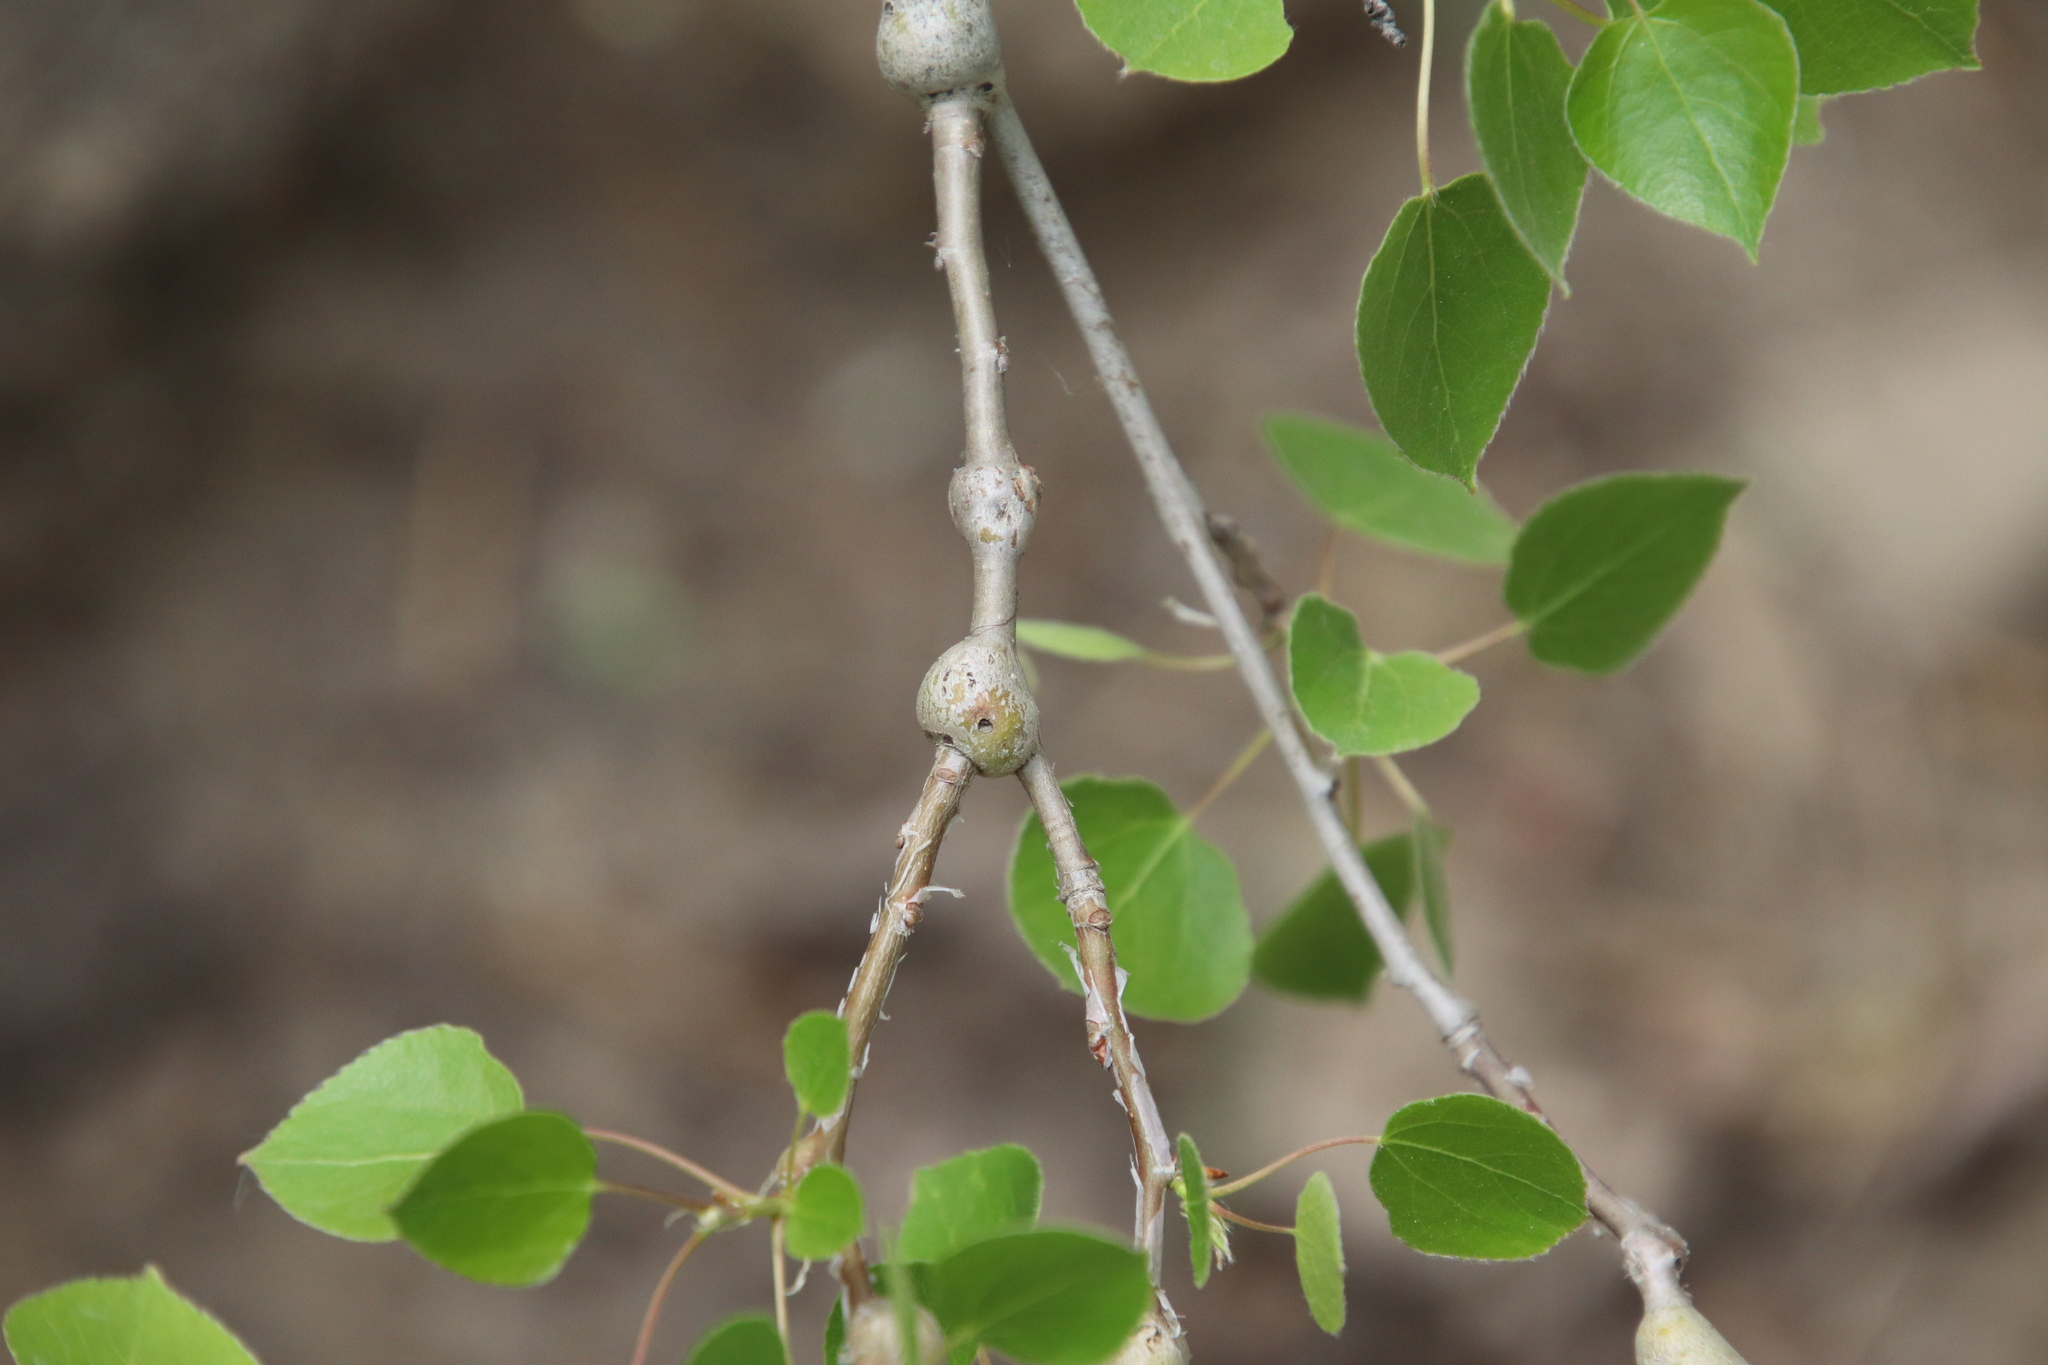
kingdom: Animalia
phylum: Arthropoda
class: Insecta
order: Diptera
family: Agromyzidae
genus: Euhexomyza
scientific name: Euhexomyza schineri
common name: Poplar twiggall fly
